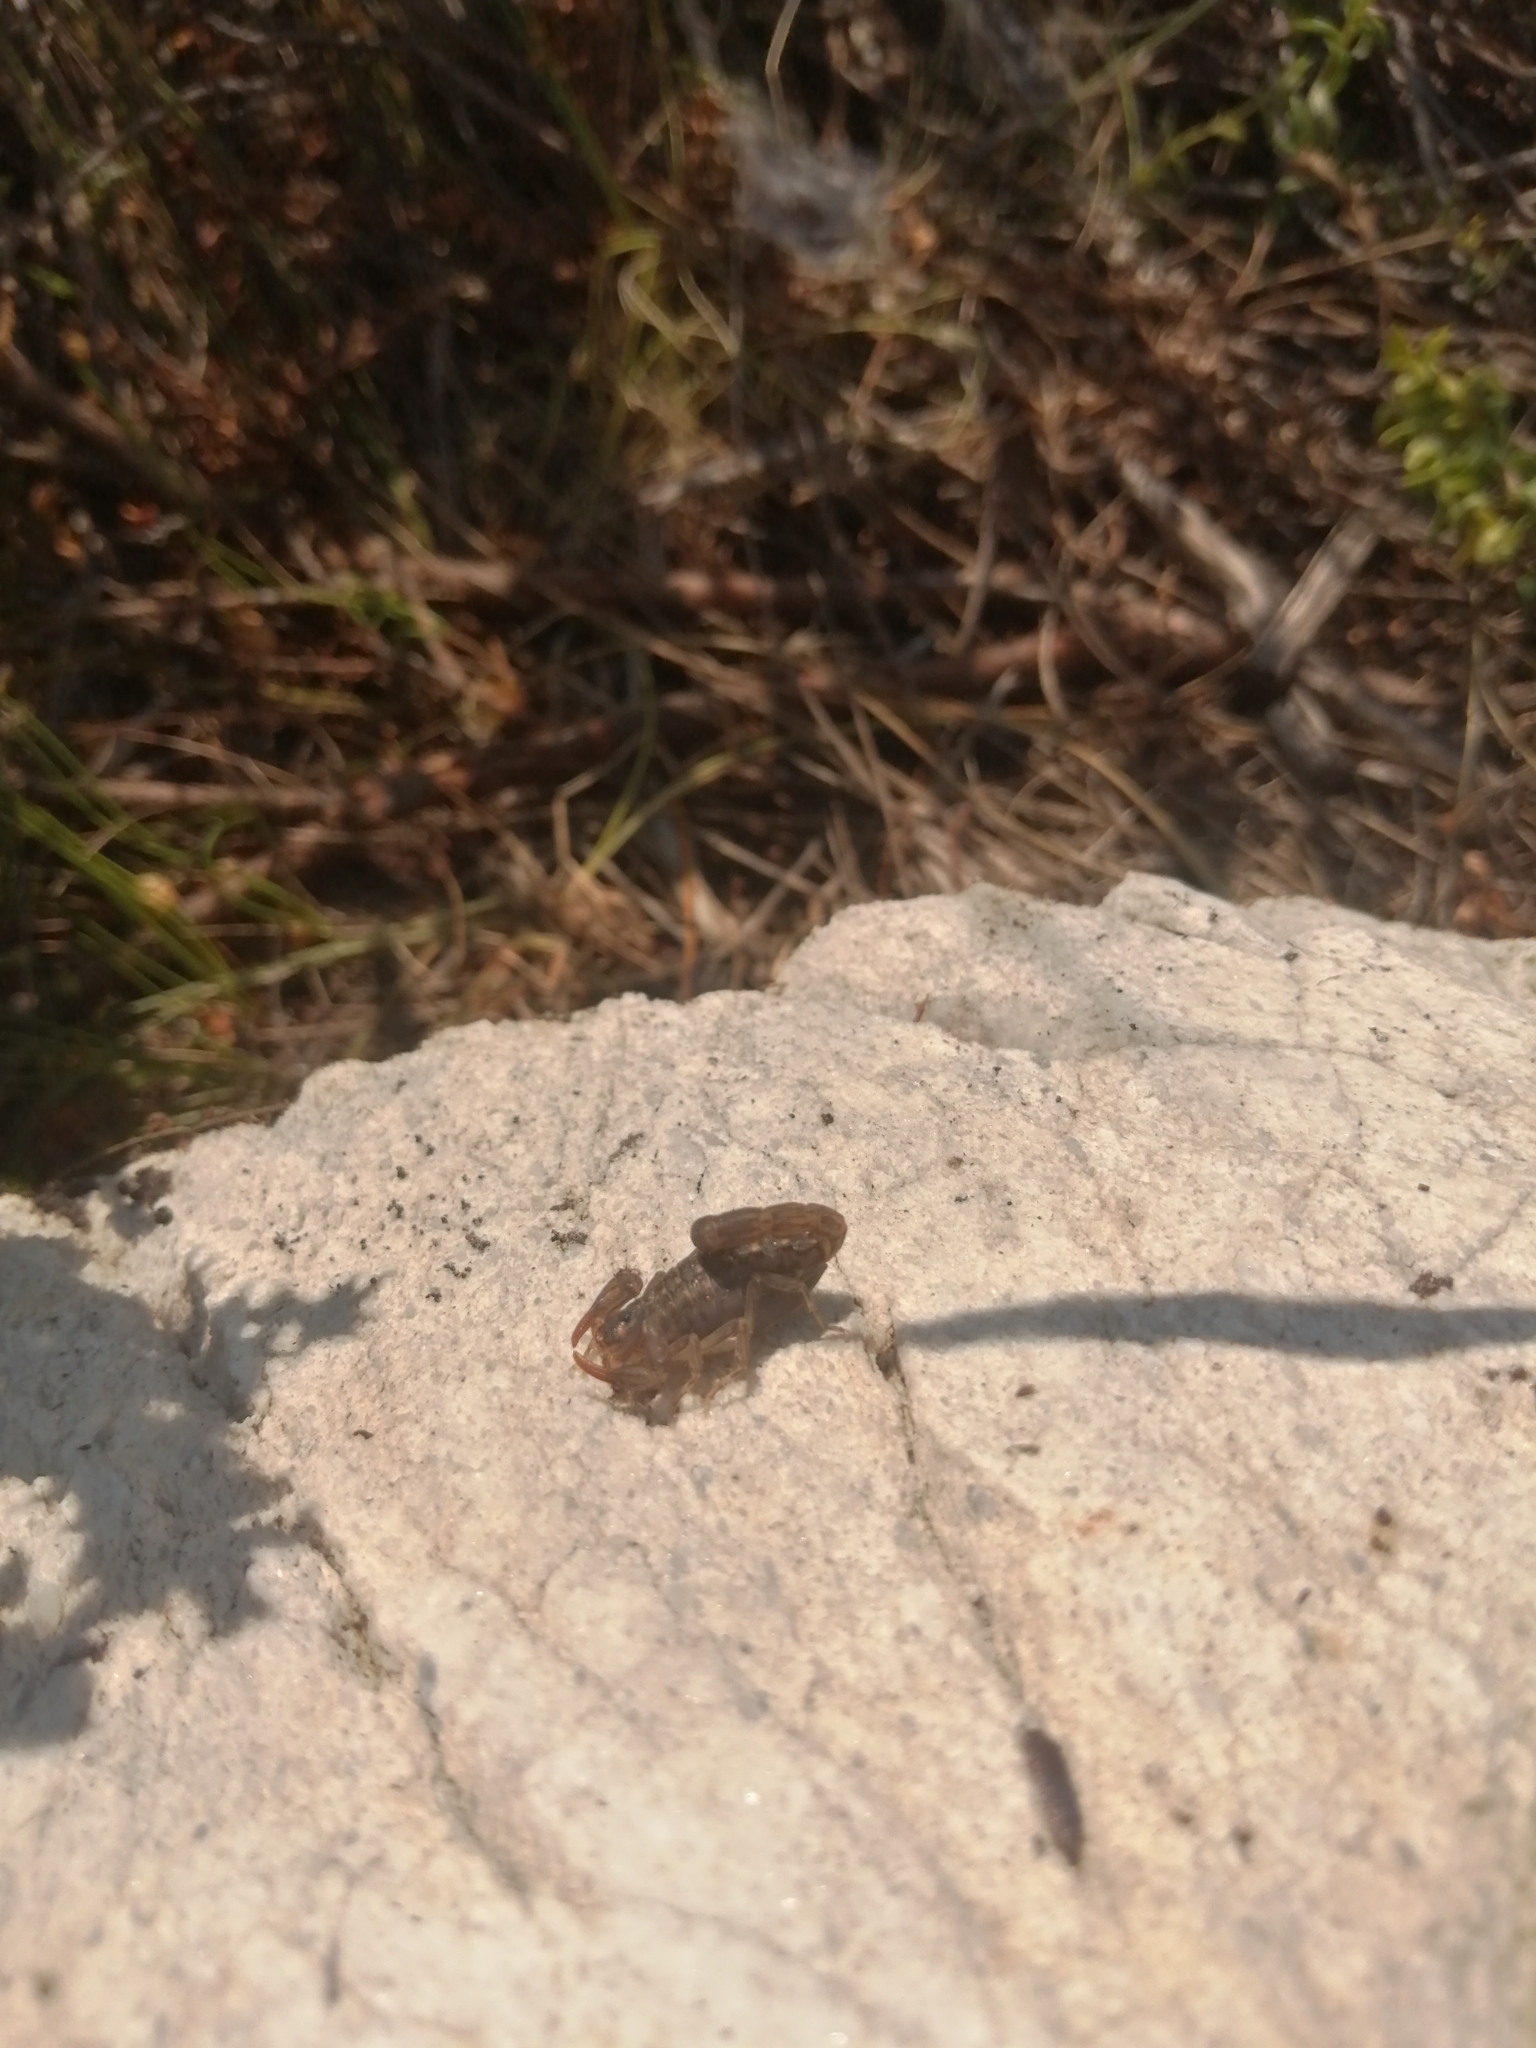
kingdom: Animalia
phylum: Arthropoda
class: Arachnida
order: Scorpiones
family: Buthidae
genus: Uroplectes
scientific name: Uroplectes lineatus
